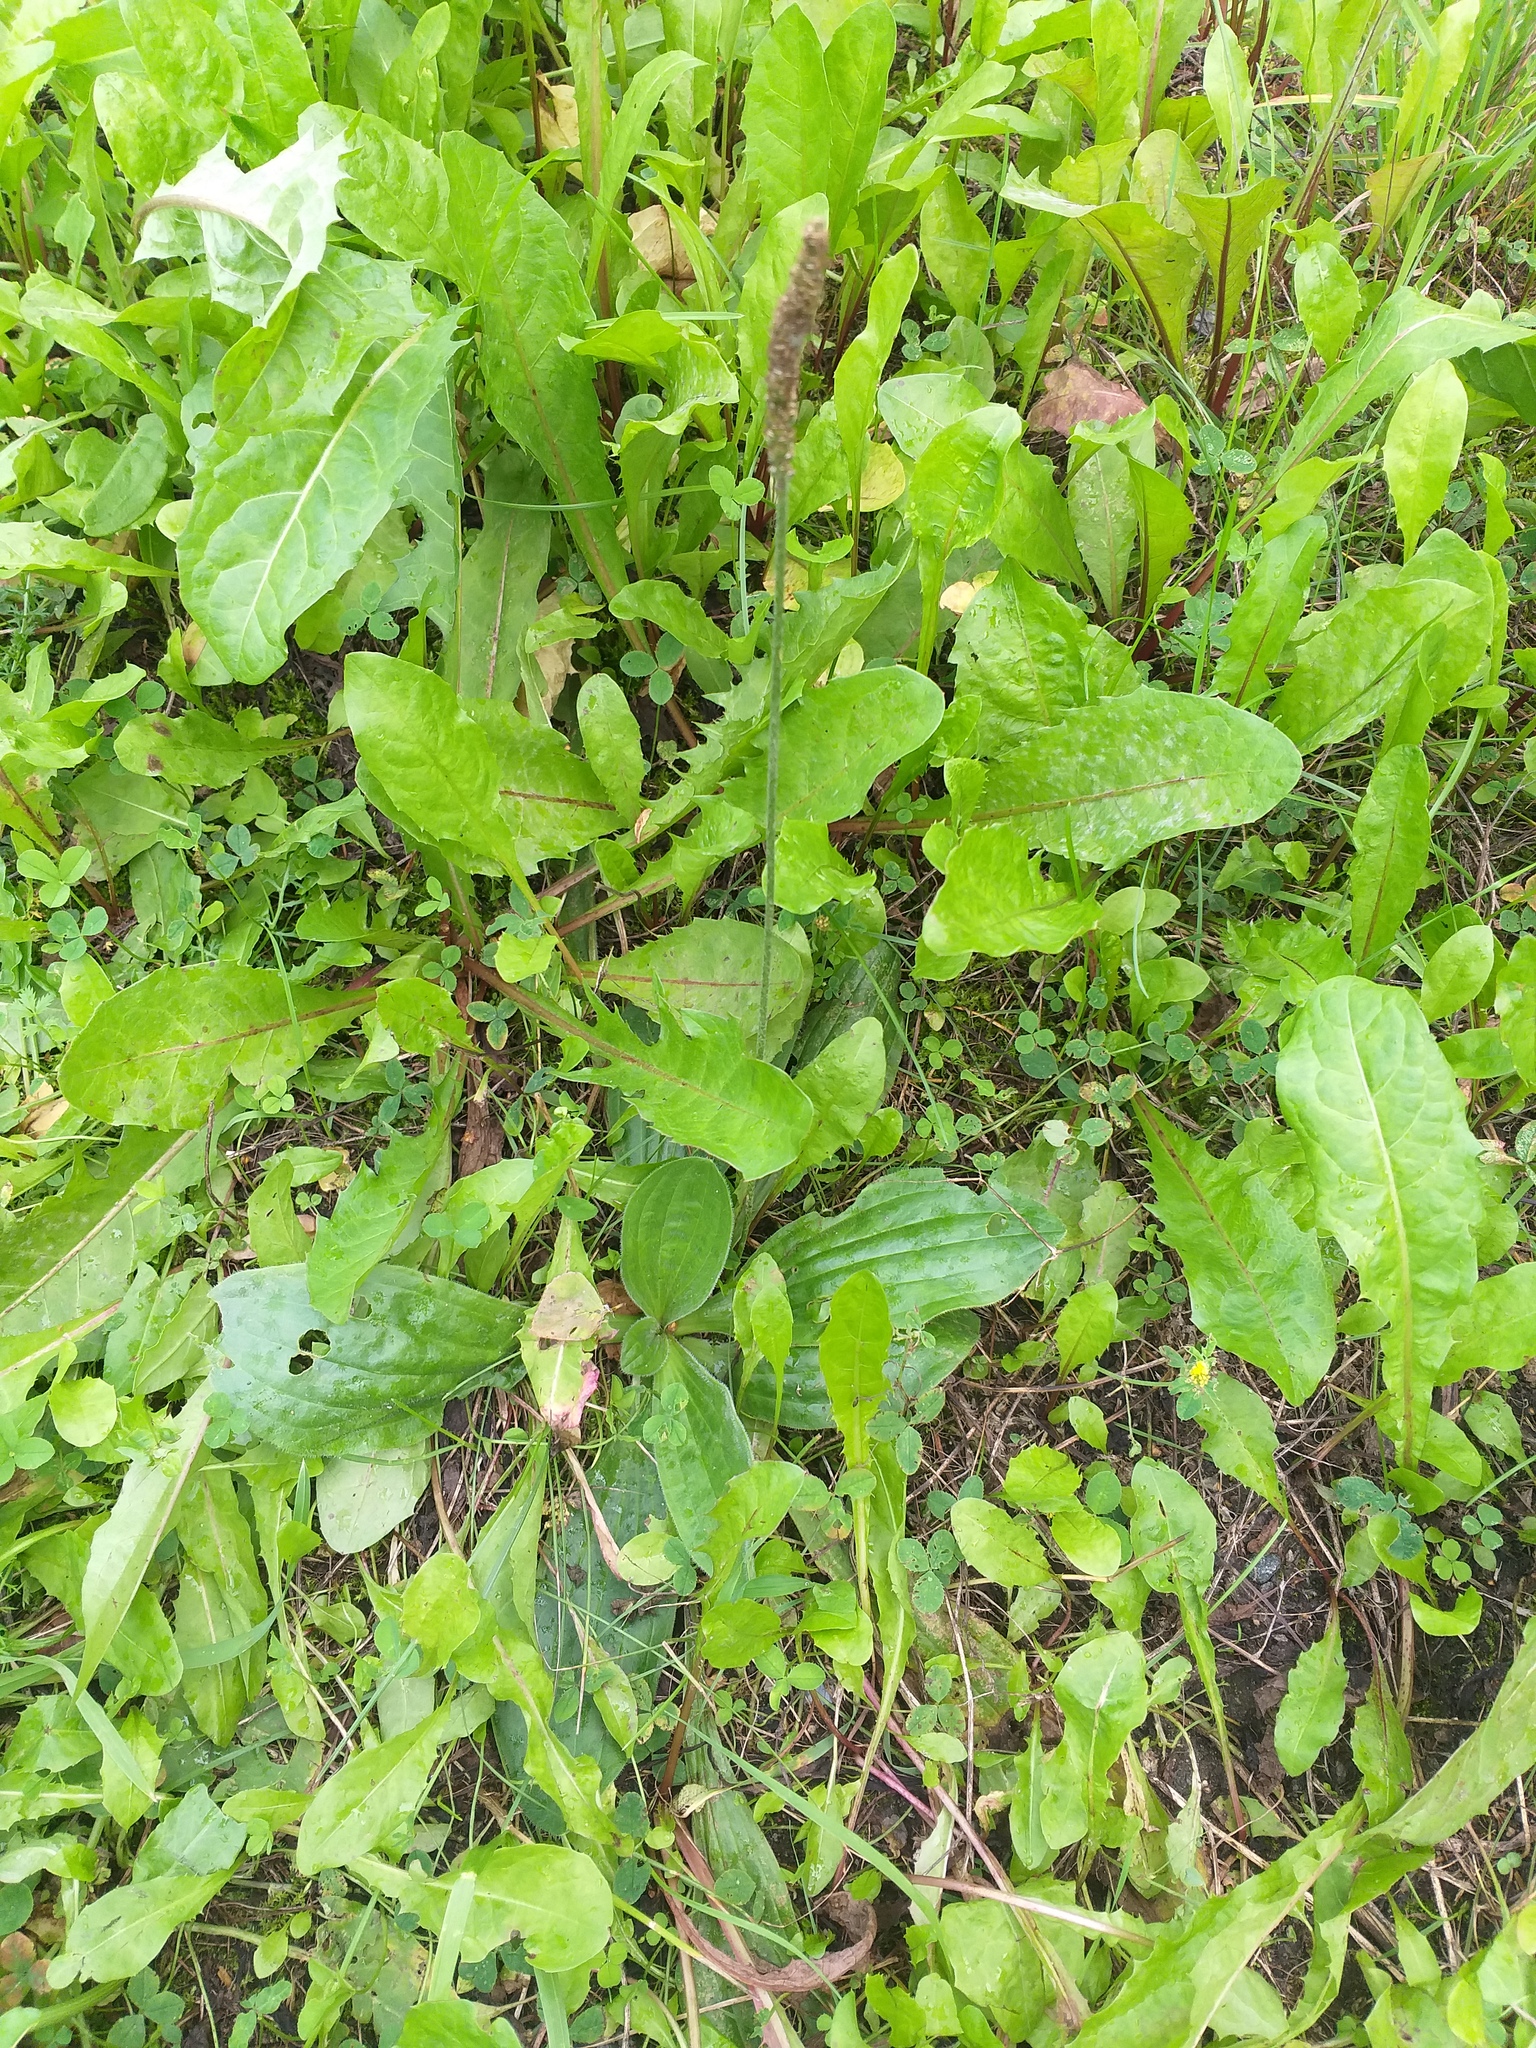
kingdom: Plantae
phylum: Tracheophyta
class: Magnoliopsida
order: Lamiales
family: Plantaginaceae
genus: Plantago
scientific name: Plantago media
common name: Hoary plantain
